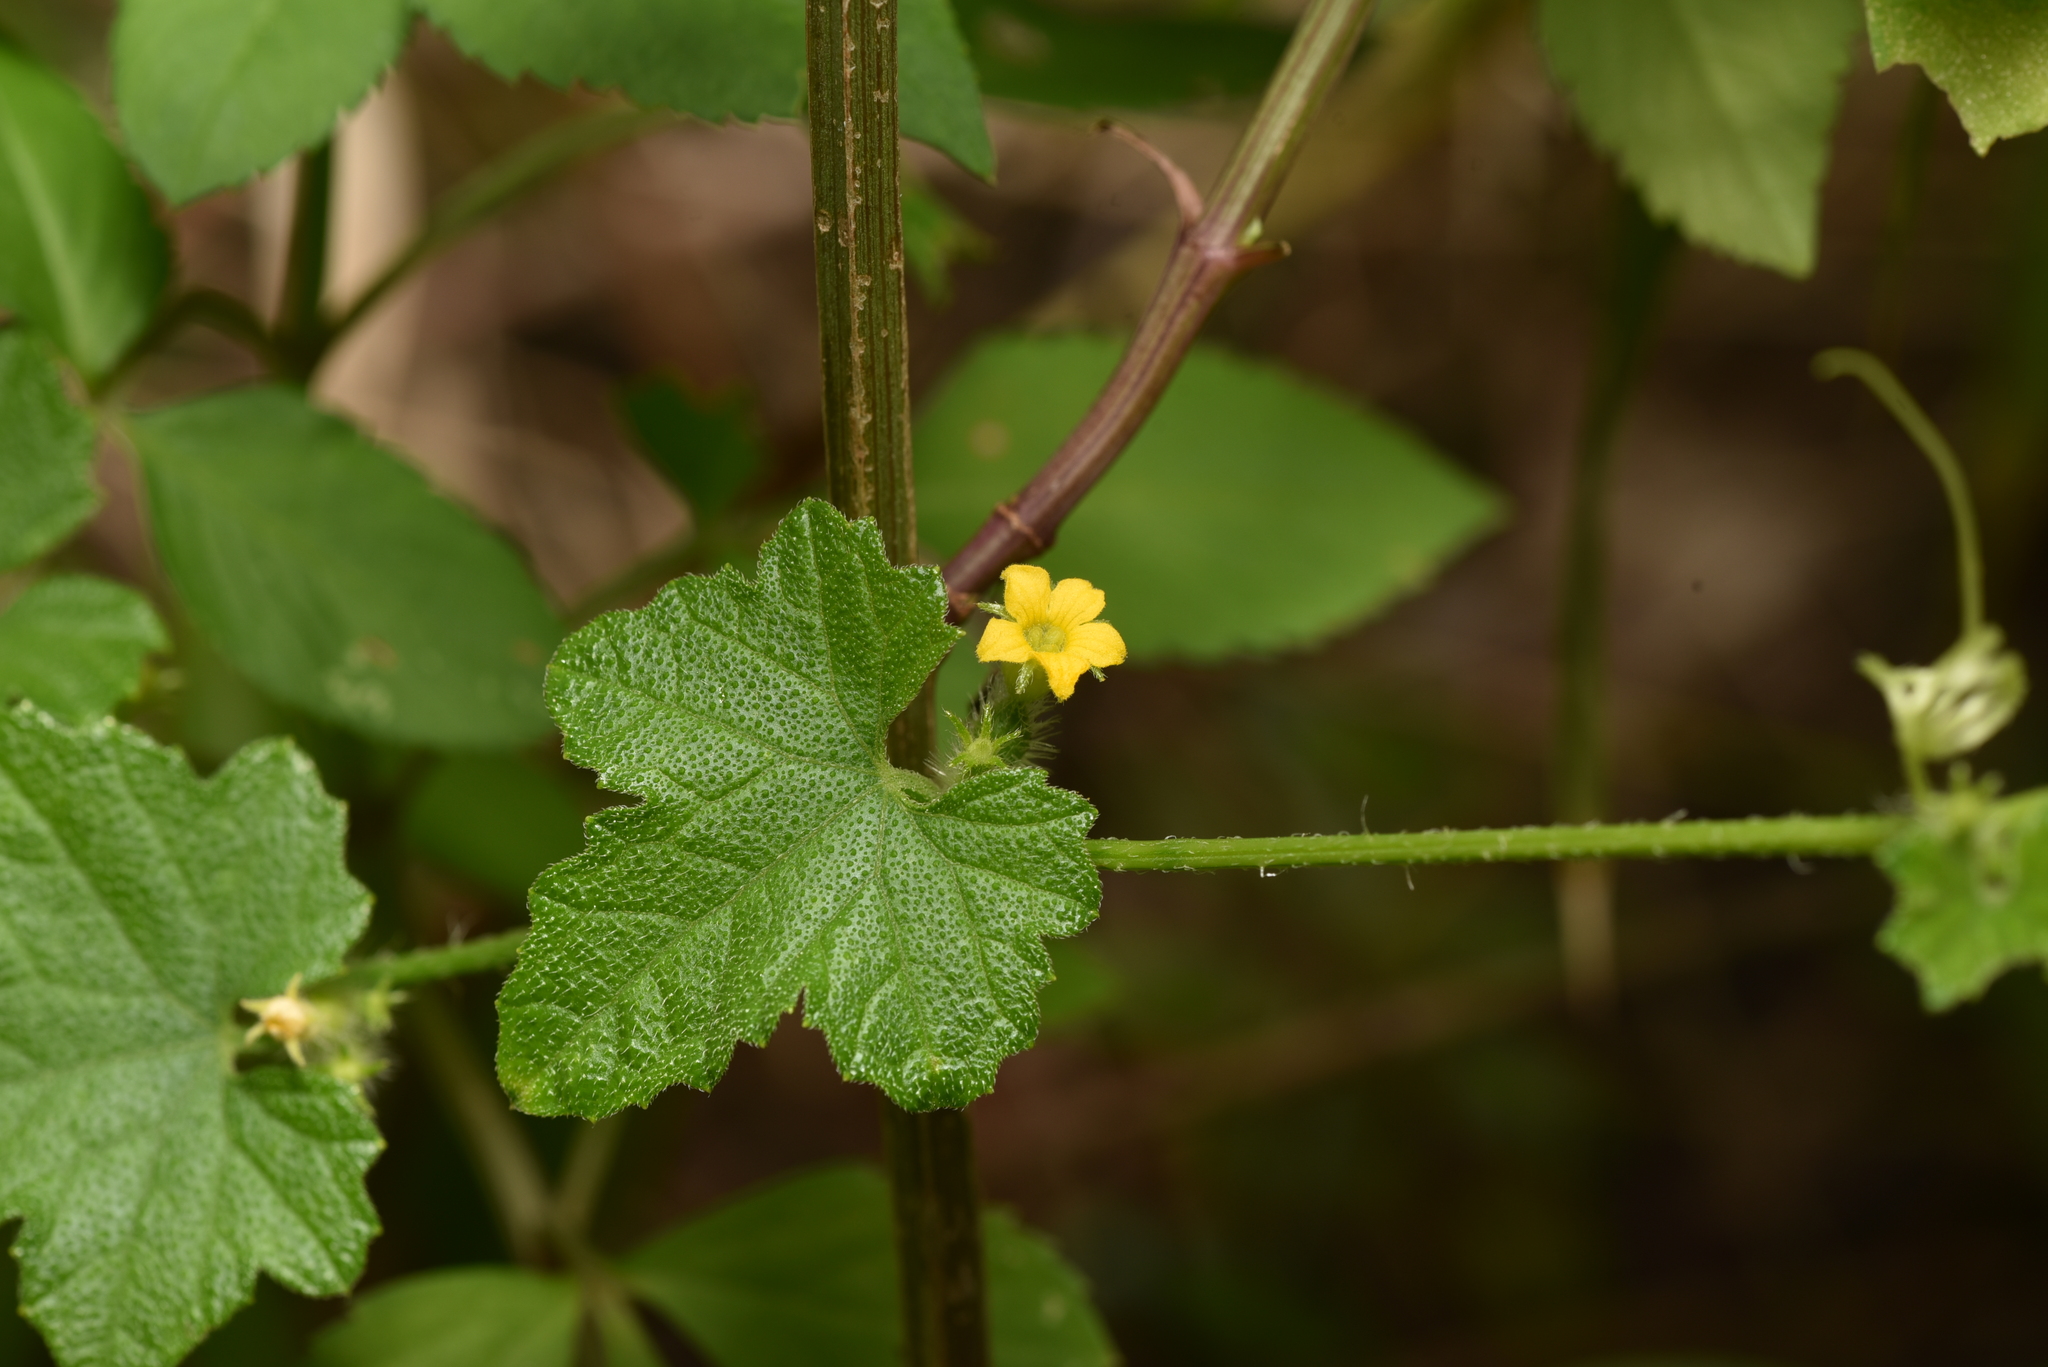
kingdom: Plantae
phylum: Tracheophyta
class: Magnoliopsida
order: Cucurbitales
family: Cucurbitaceae
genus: Cucumis
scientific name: Cucumis maderaspatanus
